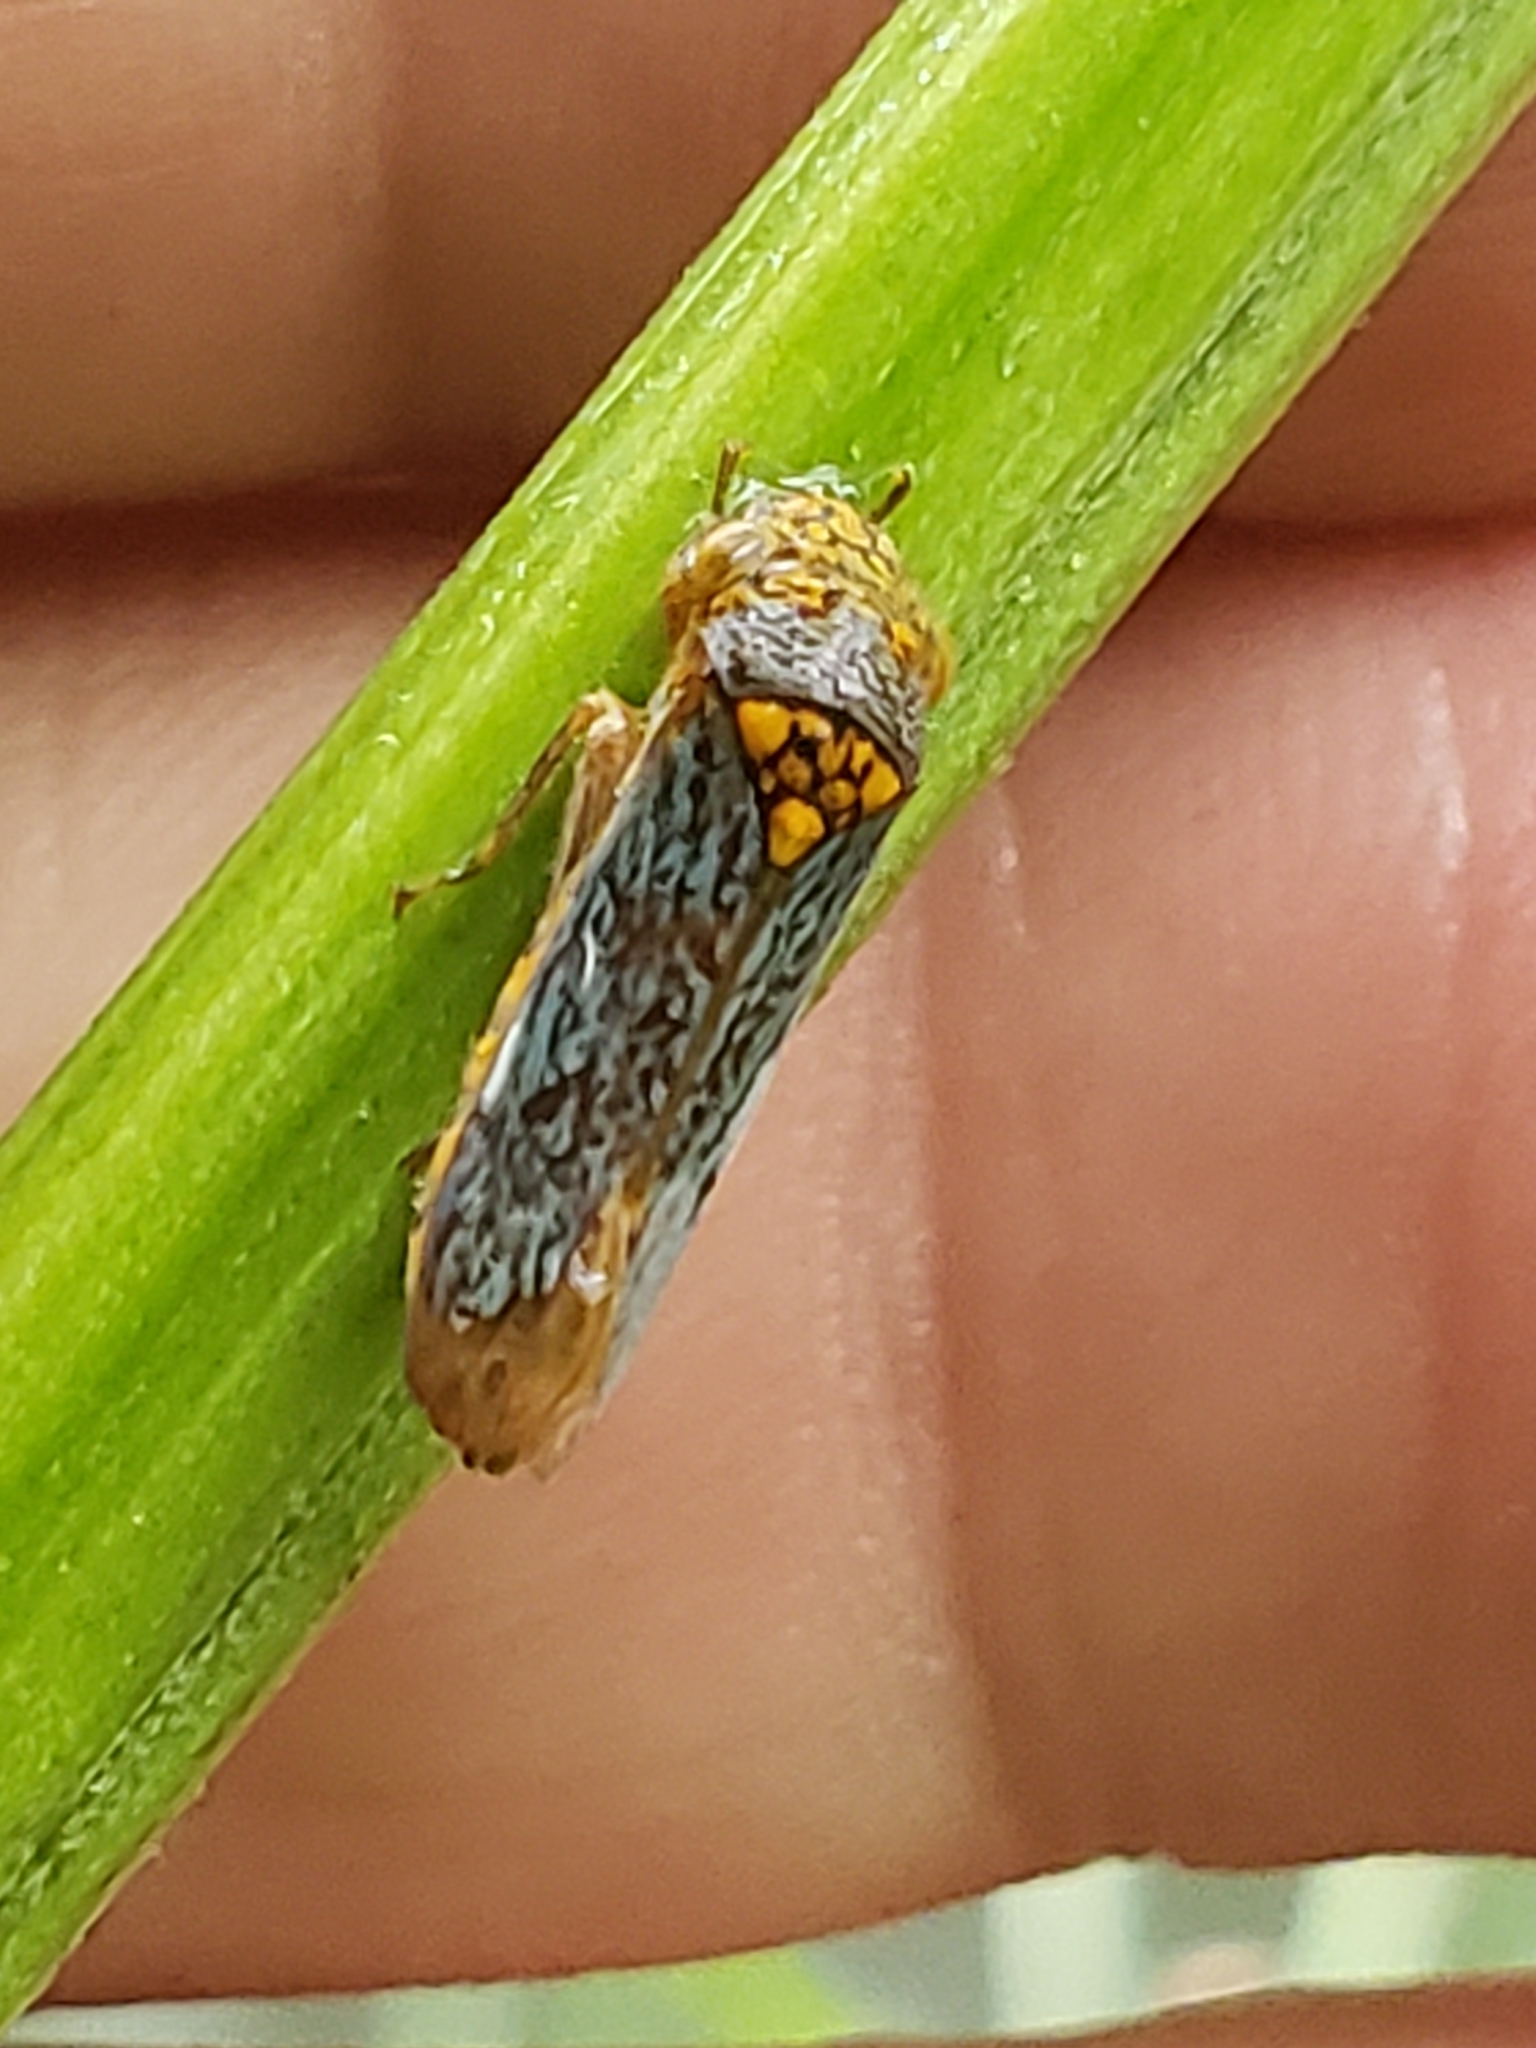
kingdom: Animalia
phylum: Arthropoda
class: Insecta
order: Hemiptera
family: Cicadellidae
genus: Oncometopia
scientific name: Oncometopia orbona
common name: Broad-headed sharpshooter
